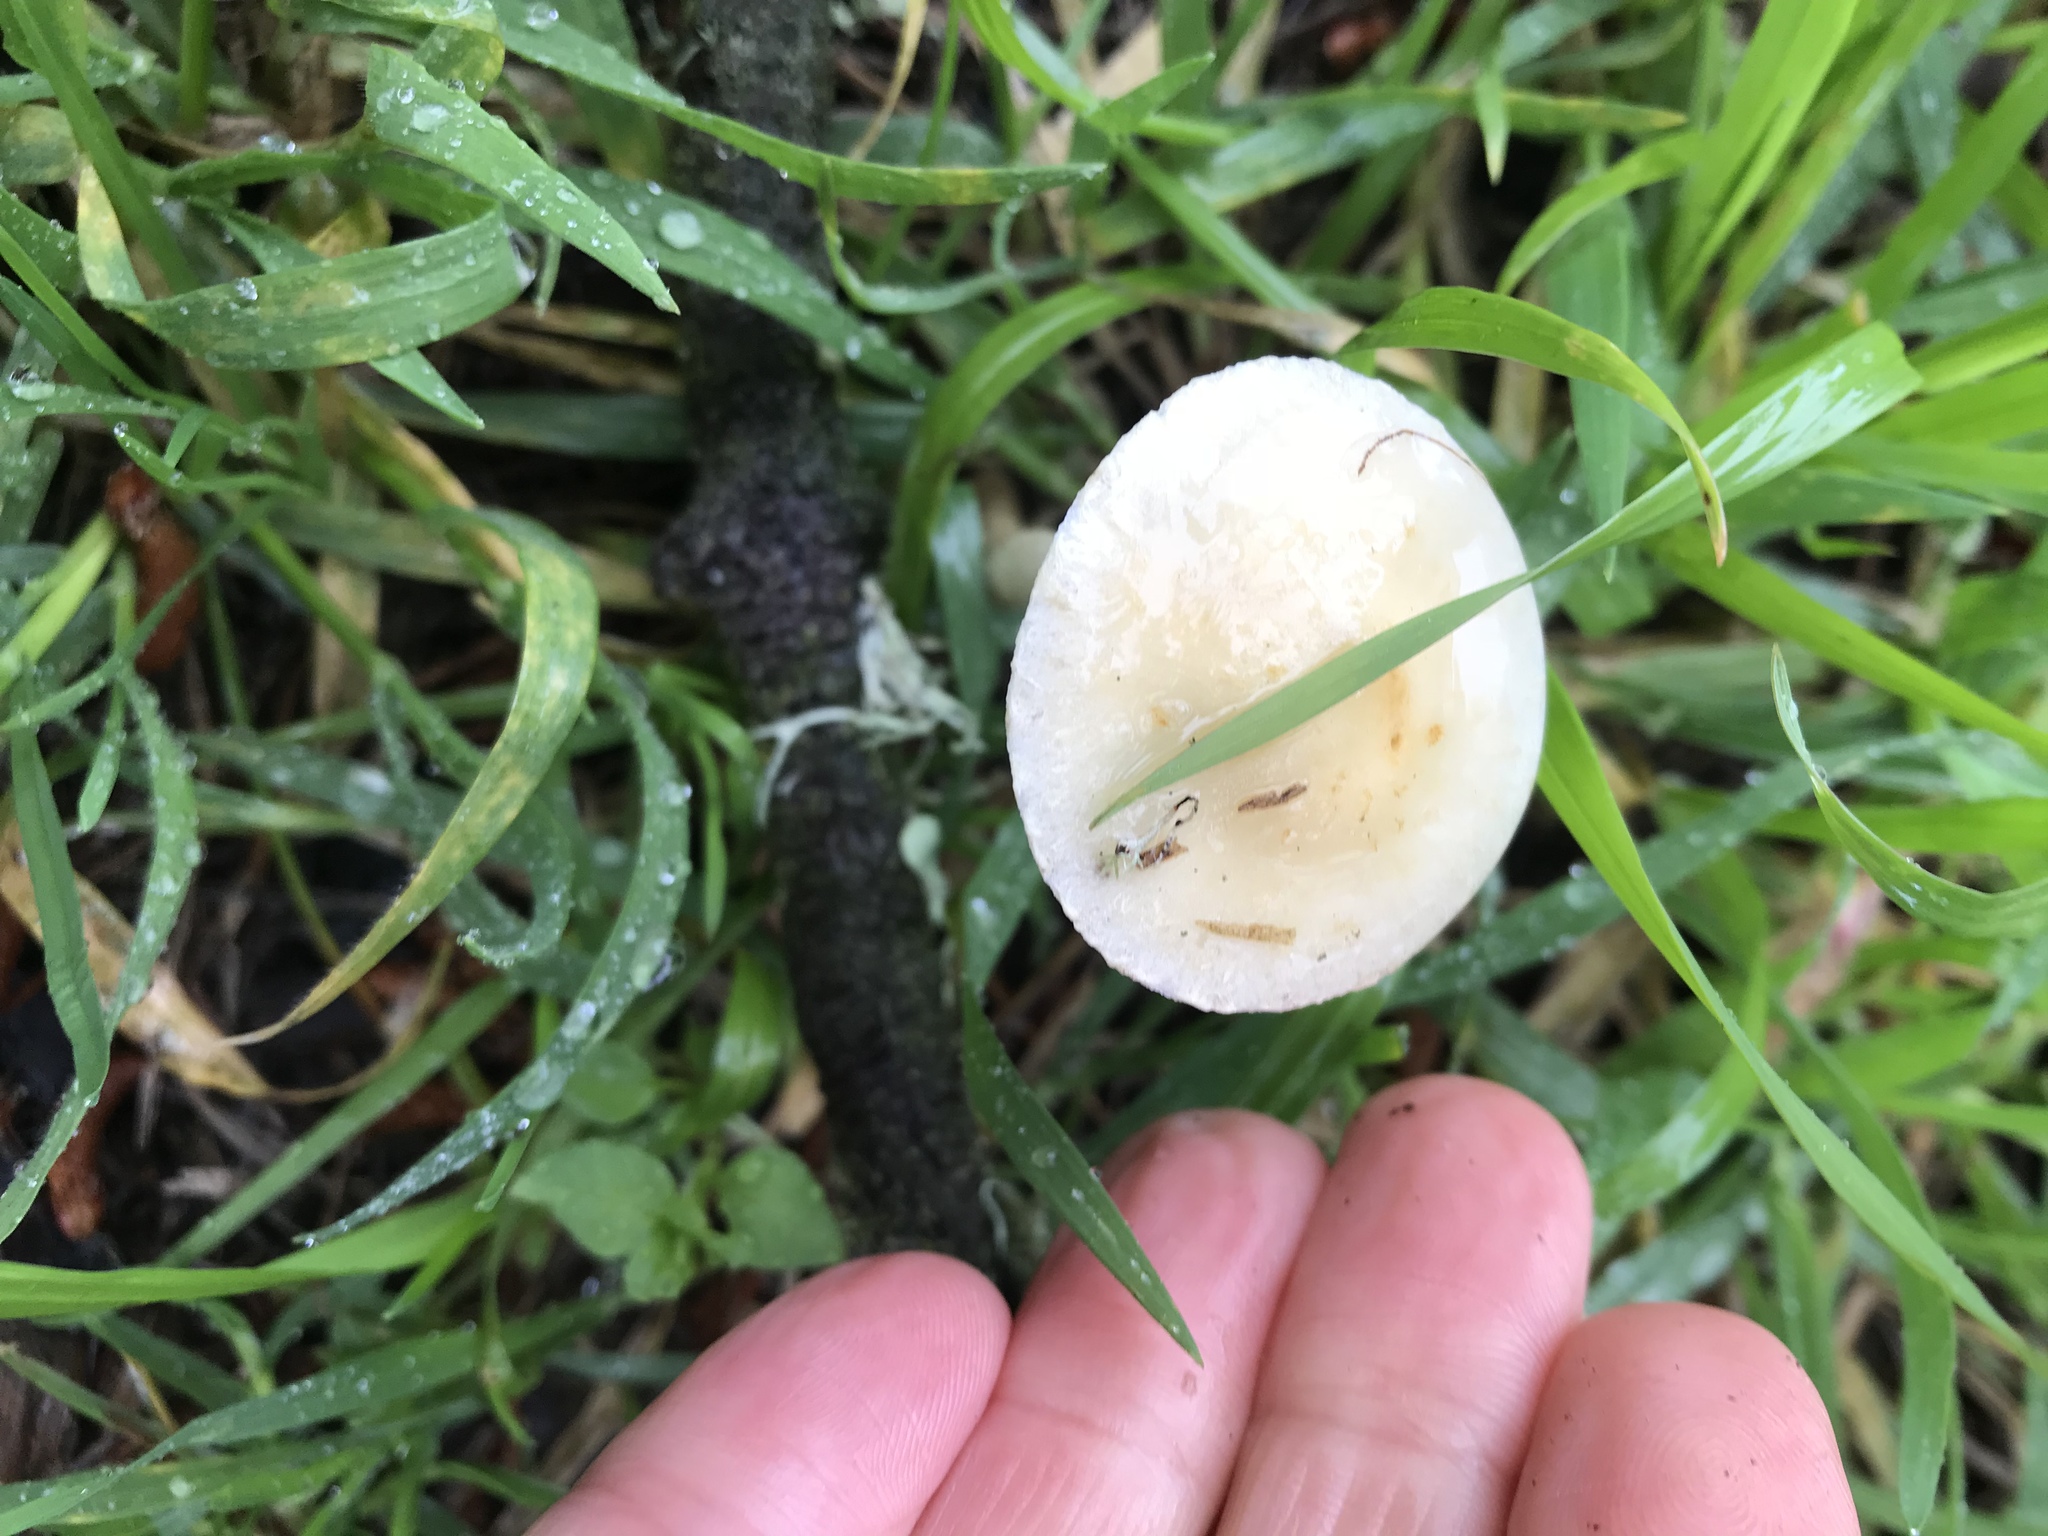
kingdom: Fungi
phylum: Basidiomycota
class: Agaricomycetes
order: Agaricales
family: Strophariaceae
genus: Leratiomyces
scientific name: Leratiomyces percevalii
